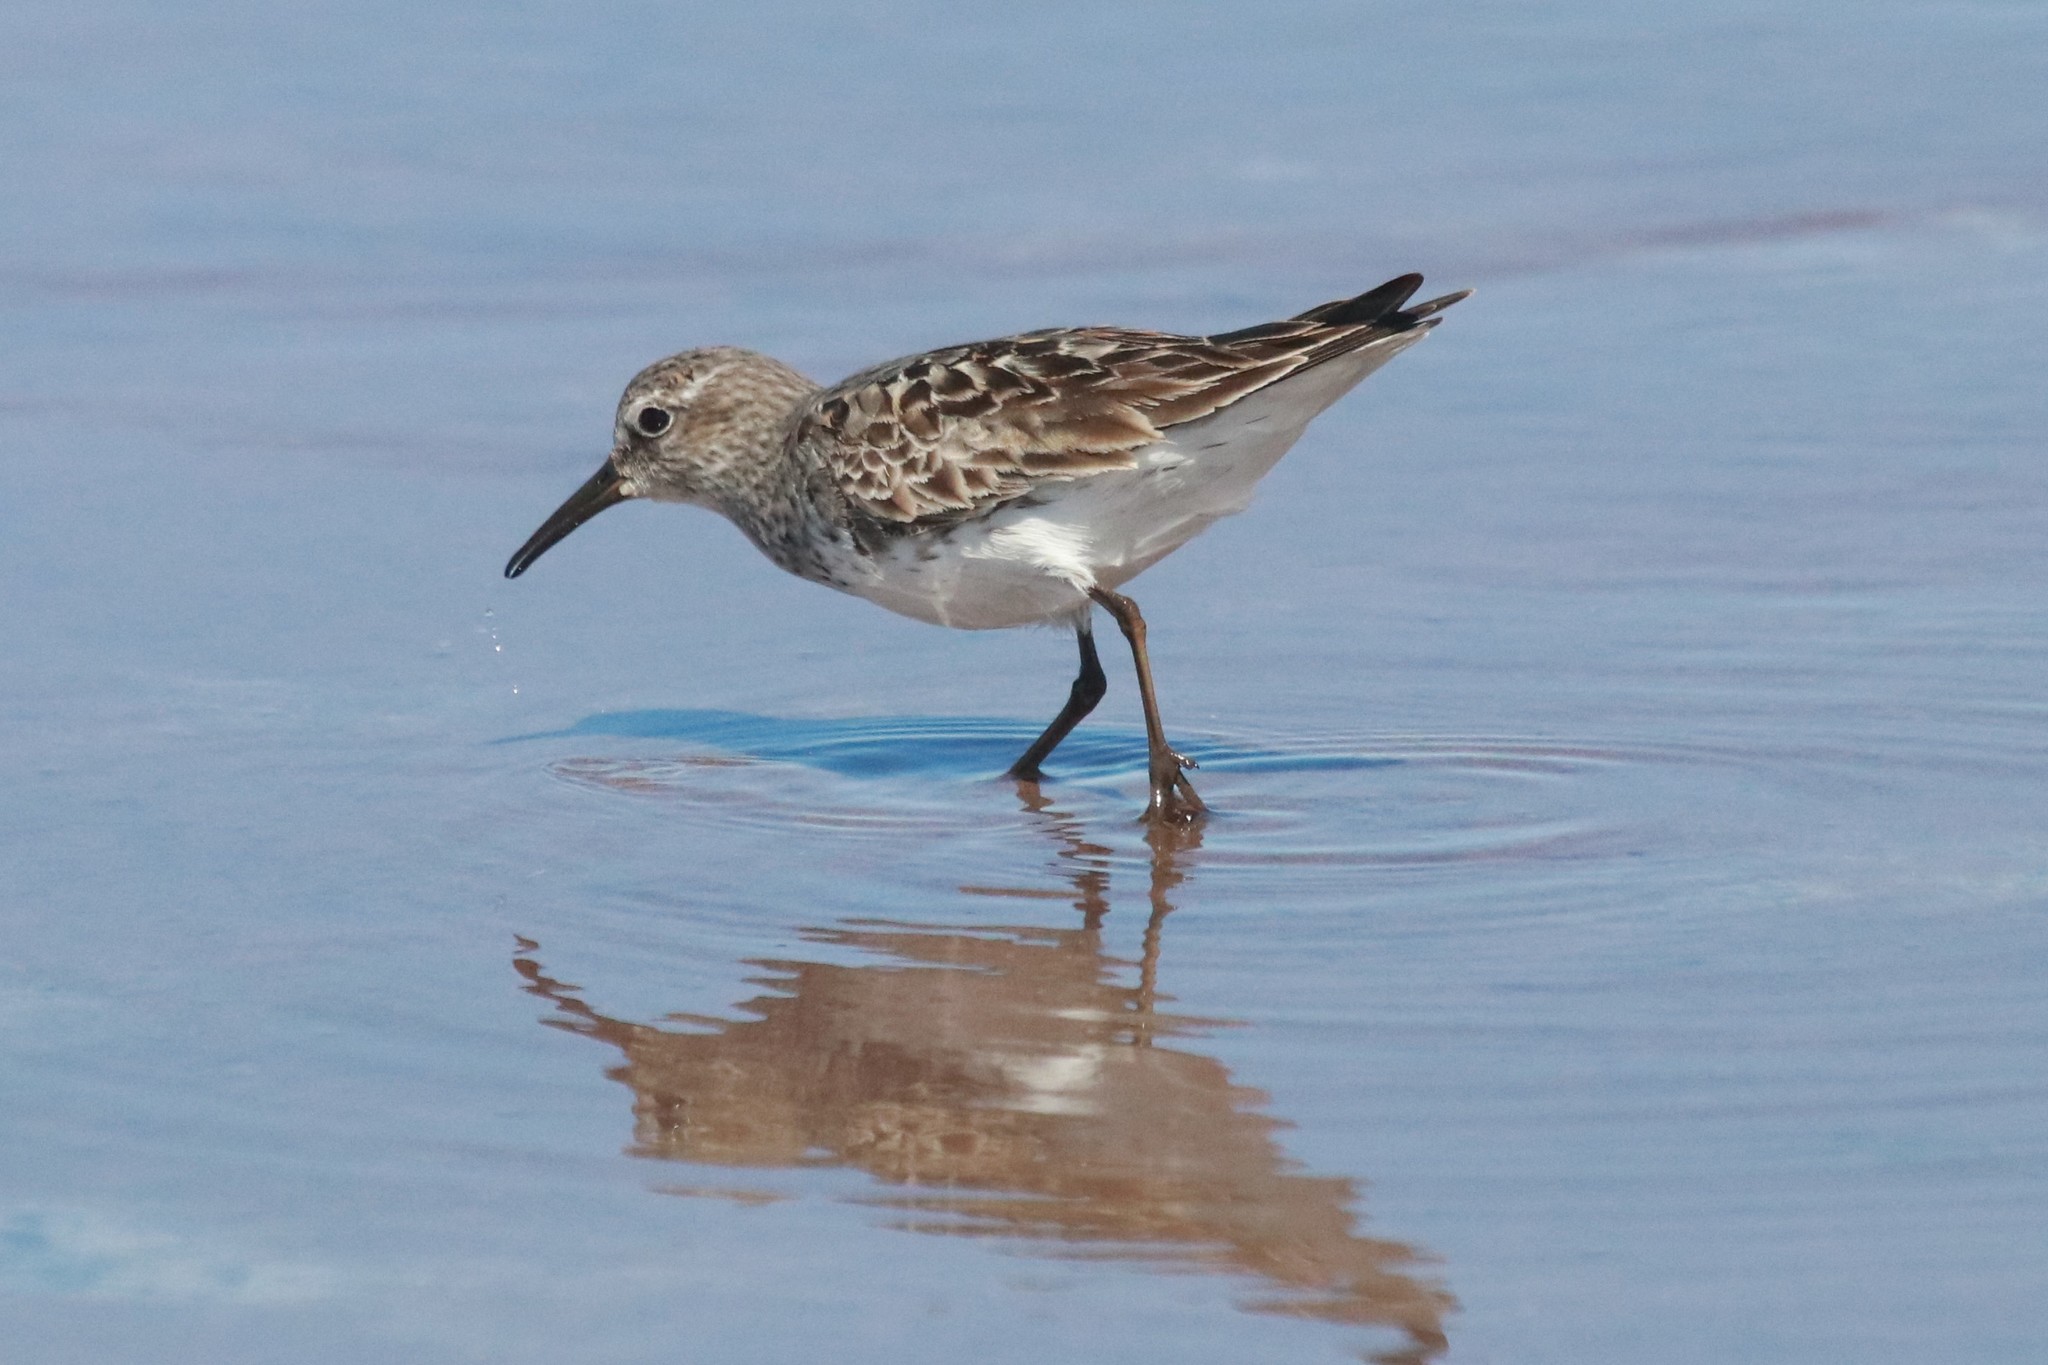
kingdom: Animalia
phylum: Chordata
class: Aves
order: Charadriiformes
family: Scolopacidae
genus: Calidris
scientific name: Calidris fuscicollis
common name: White-rumped sandpiper
